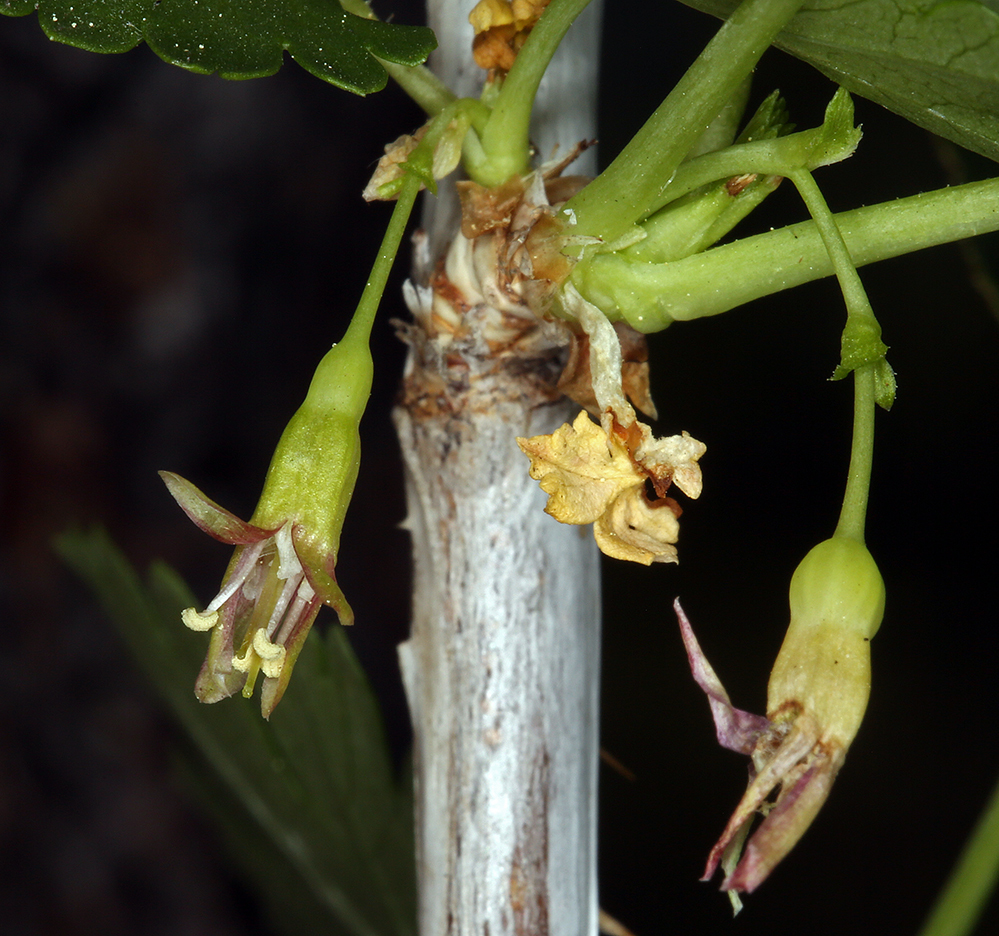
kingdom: Plantae
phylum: Tracheophyta
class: Magnoliopsida
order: Saxifragales
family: Grossulariaceae
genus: Ribes
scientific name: Ribes inerme
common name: White-stem gooseberry
